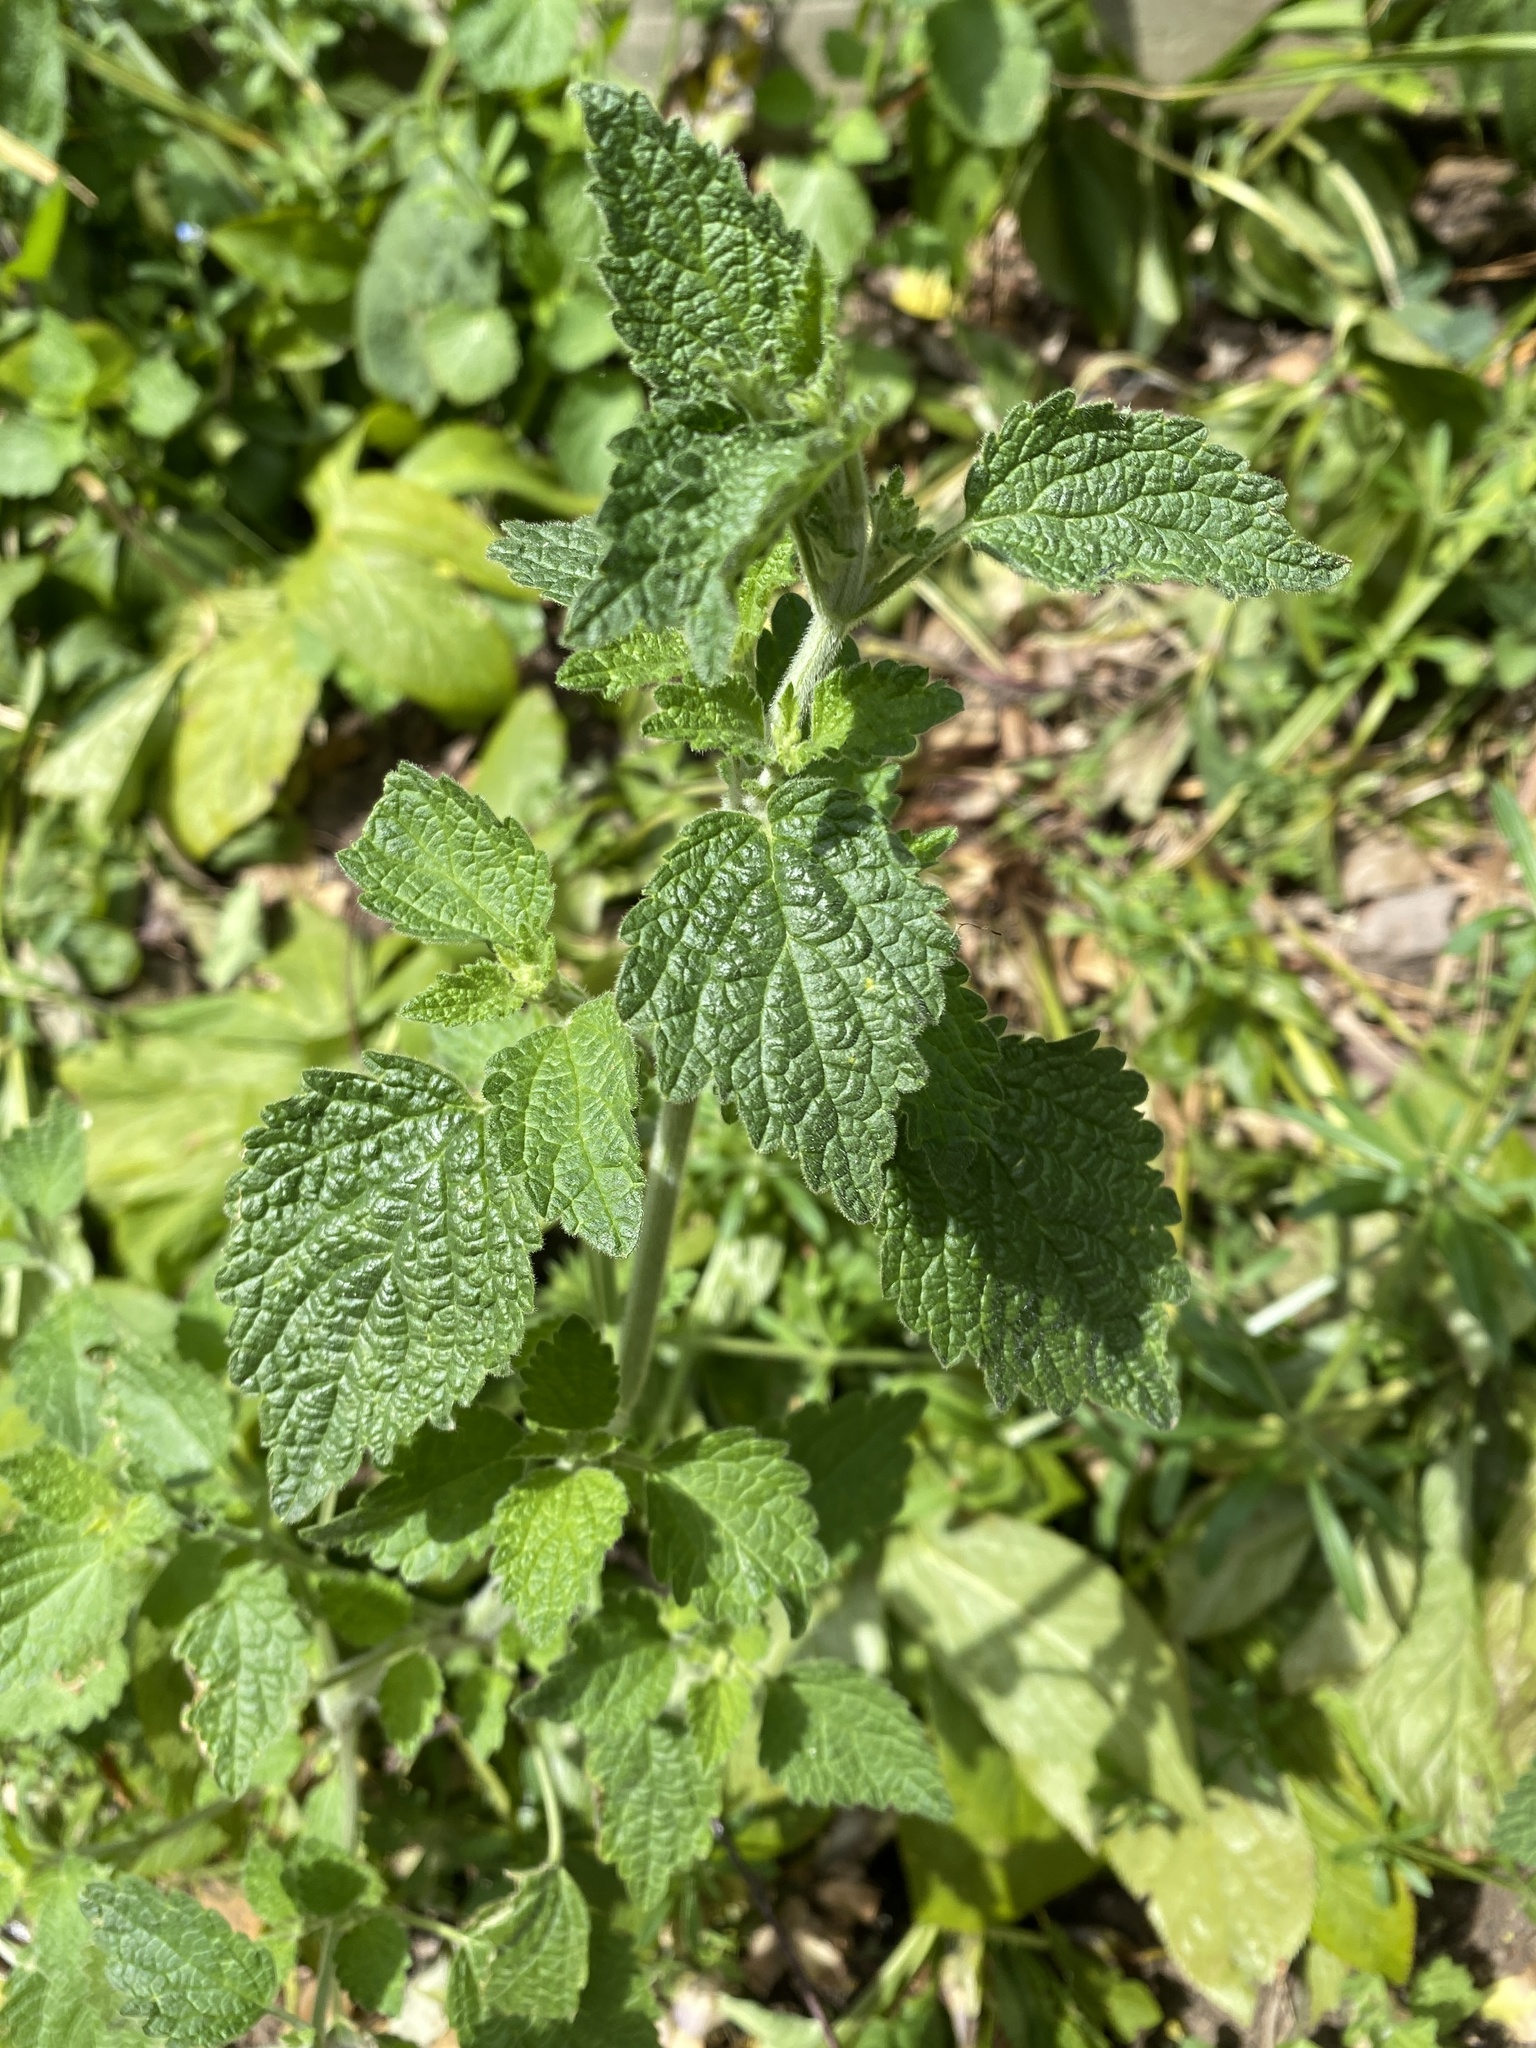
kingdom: Plantae
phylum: Tracheophyta
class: Magnoliopsida
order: Lamiales
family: Lamiaceae
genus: Ballota
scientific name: Ballota nigra
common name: Black horehound
